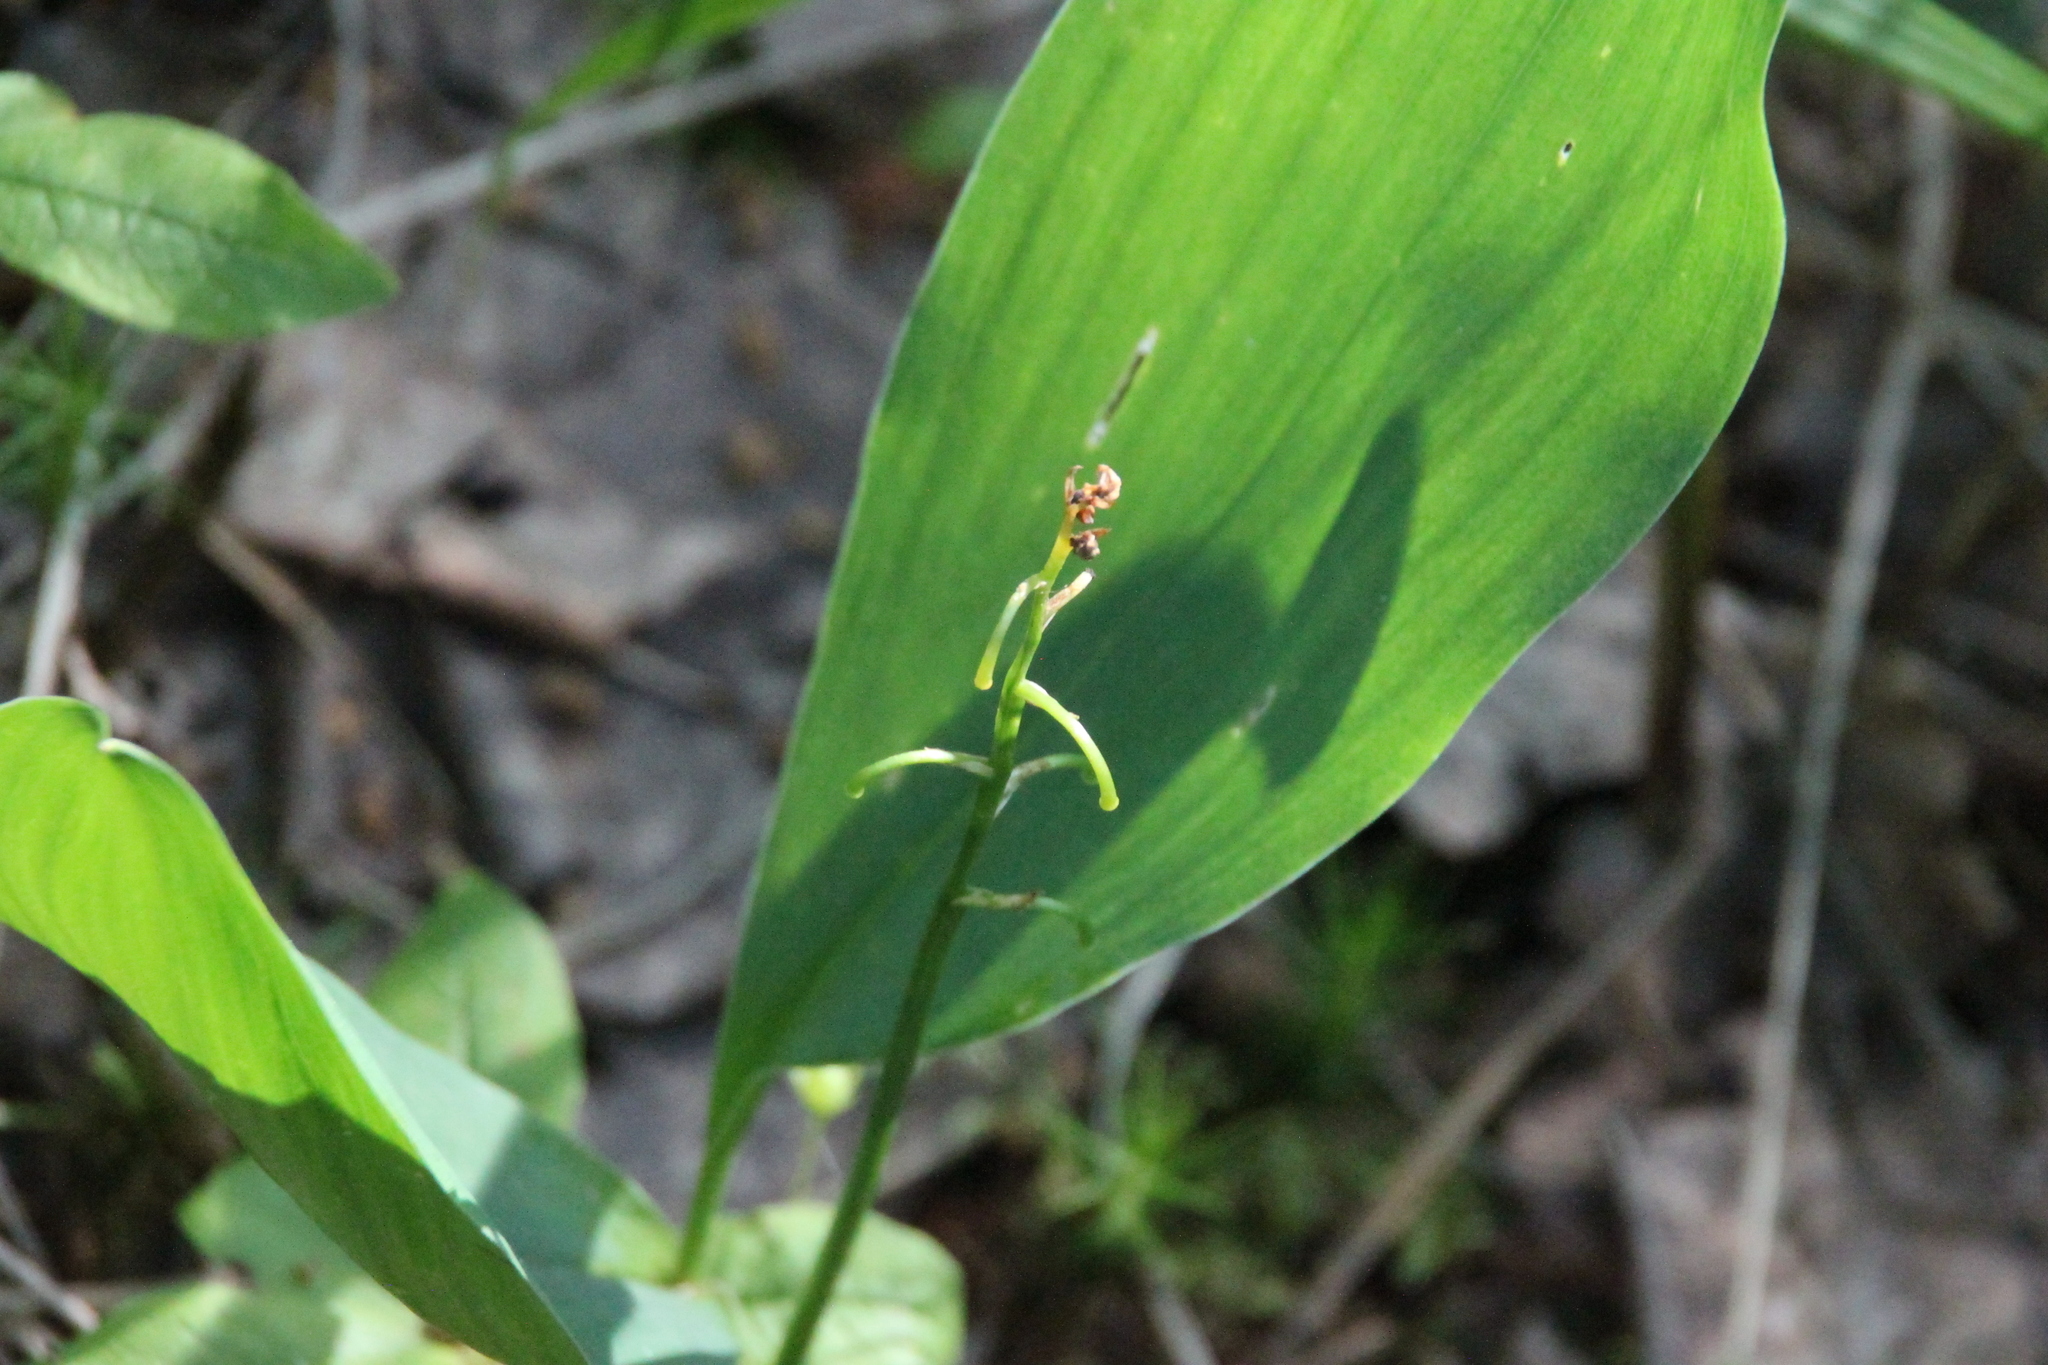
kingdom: Plantae
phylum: Tracheophyta
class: Liliopsida
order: Asparagales
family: Asparagaceae
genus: Convallaria
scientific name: Convallaria majalis
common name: Lily-of-the-valley
